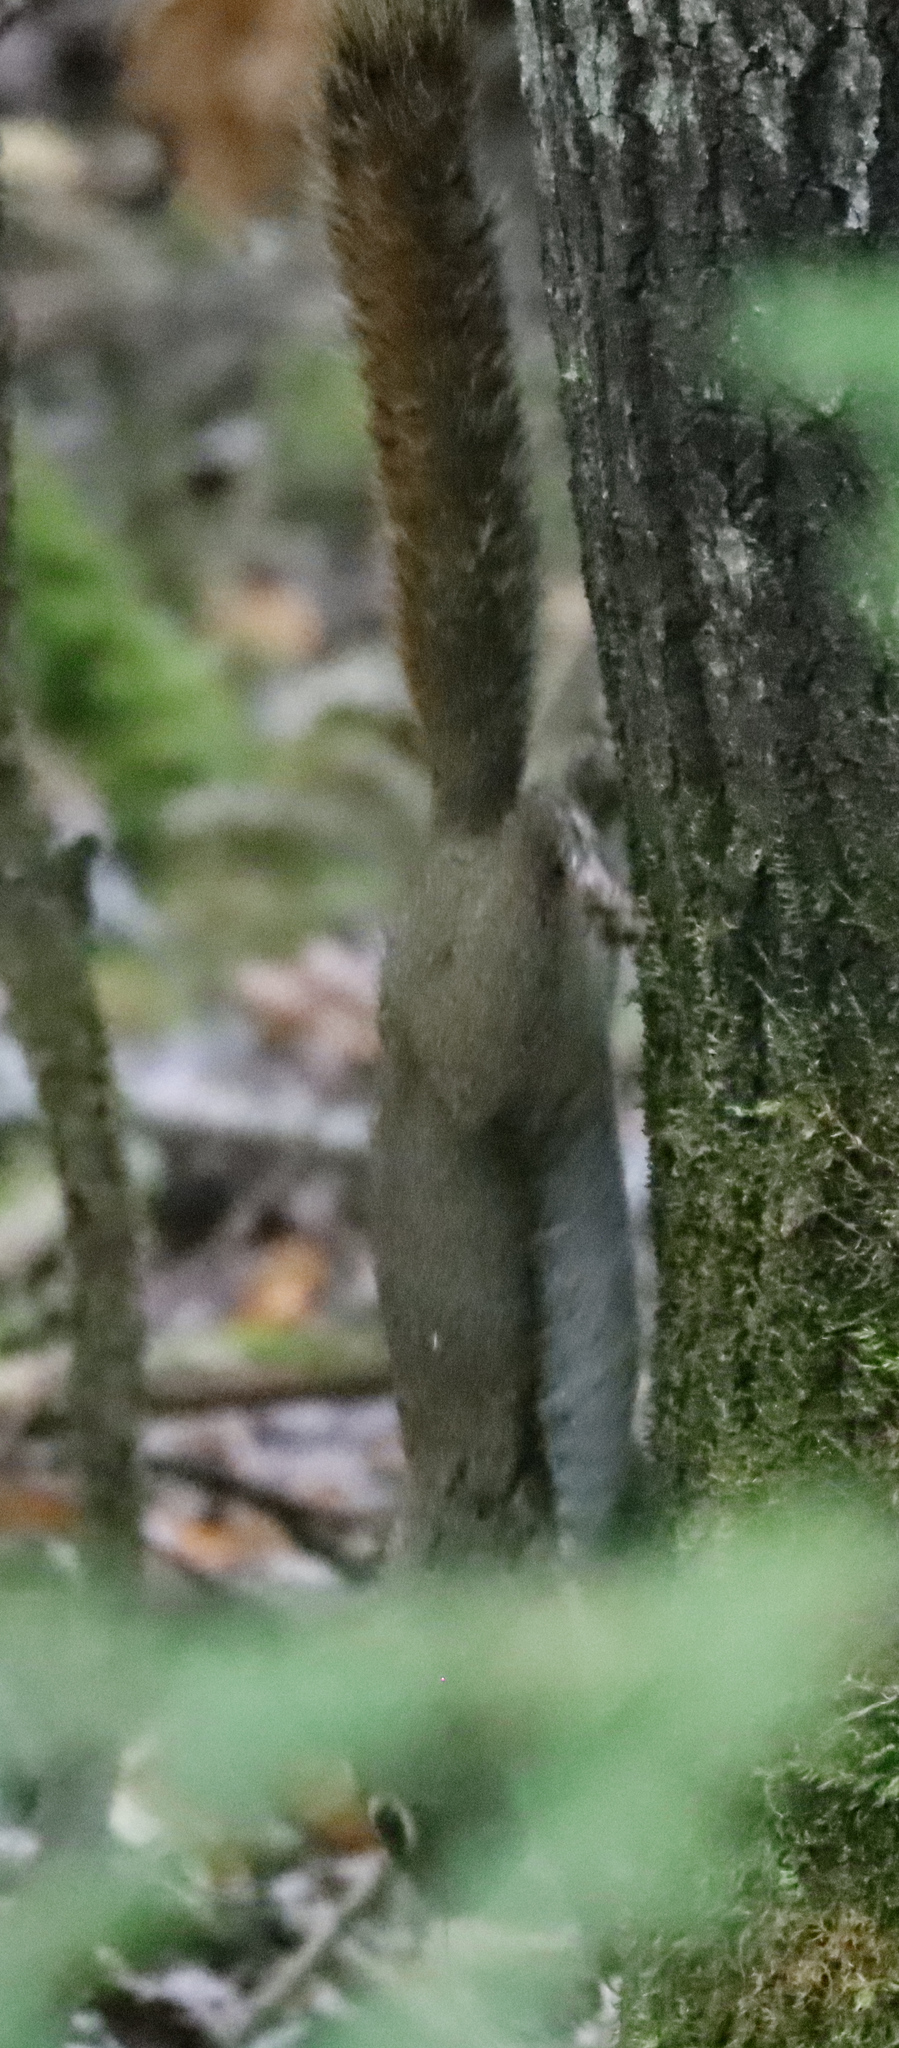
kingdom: Animalia
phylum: Chordata
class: Mammalia
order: Rodentia
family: Sciuridae
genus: Tamiasciurus
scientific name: Tamiasciurus hudsonicus
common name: Red squirrel
